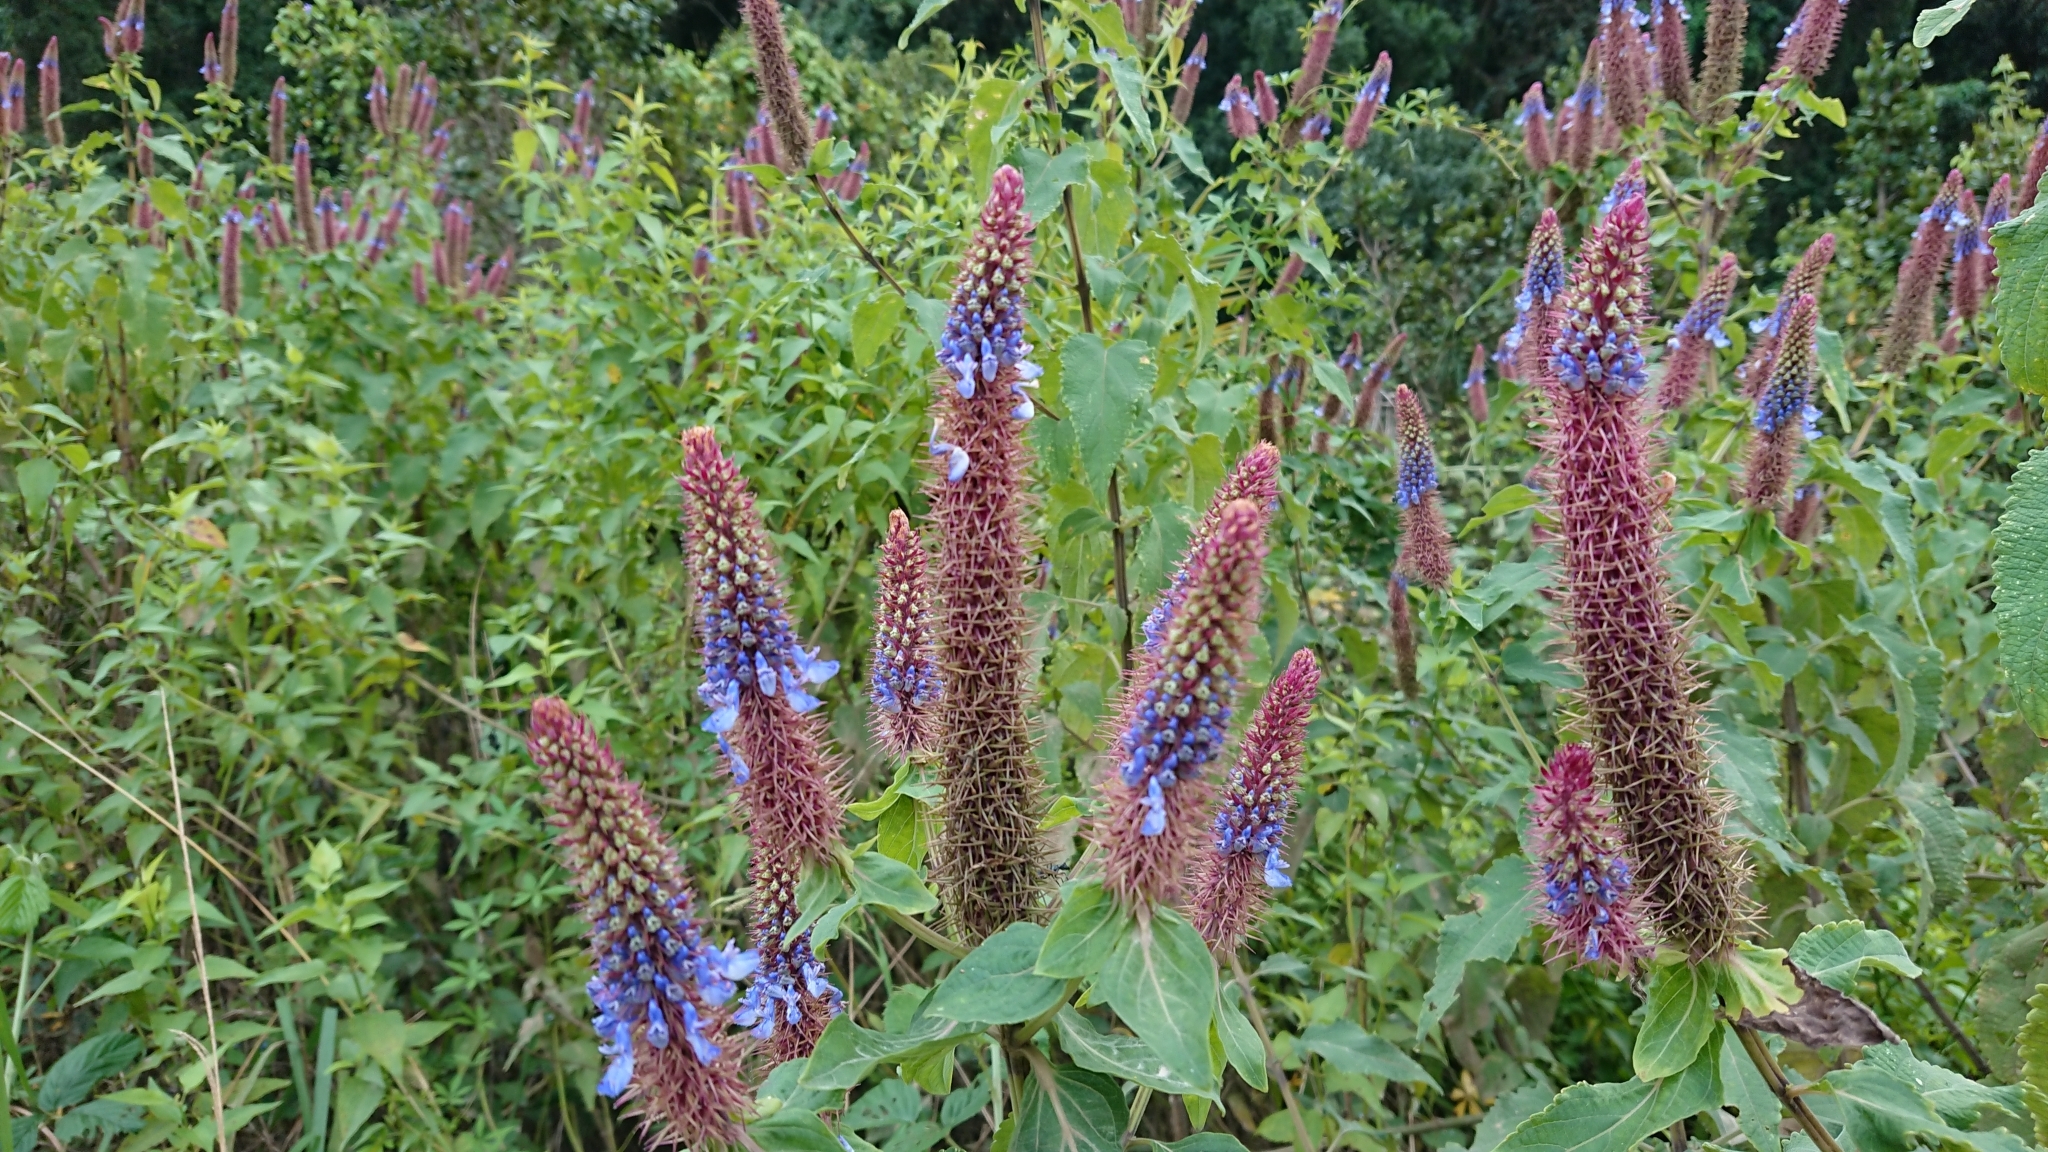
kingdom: Plantae
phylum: Tracheophyta
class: Magnoliopsida
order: Lamiales
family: Lamiaceae
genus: Coleus
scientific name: Coleus livingstonei
